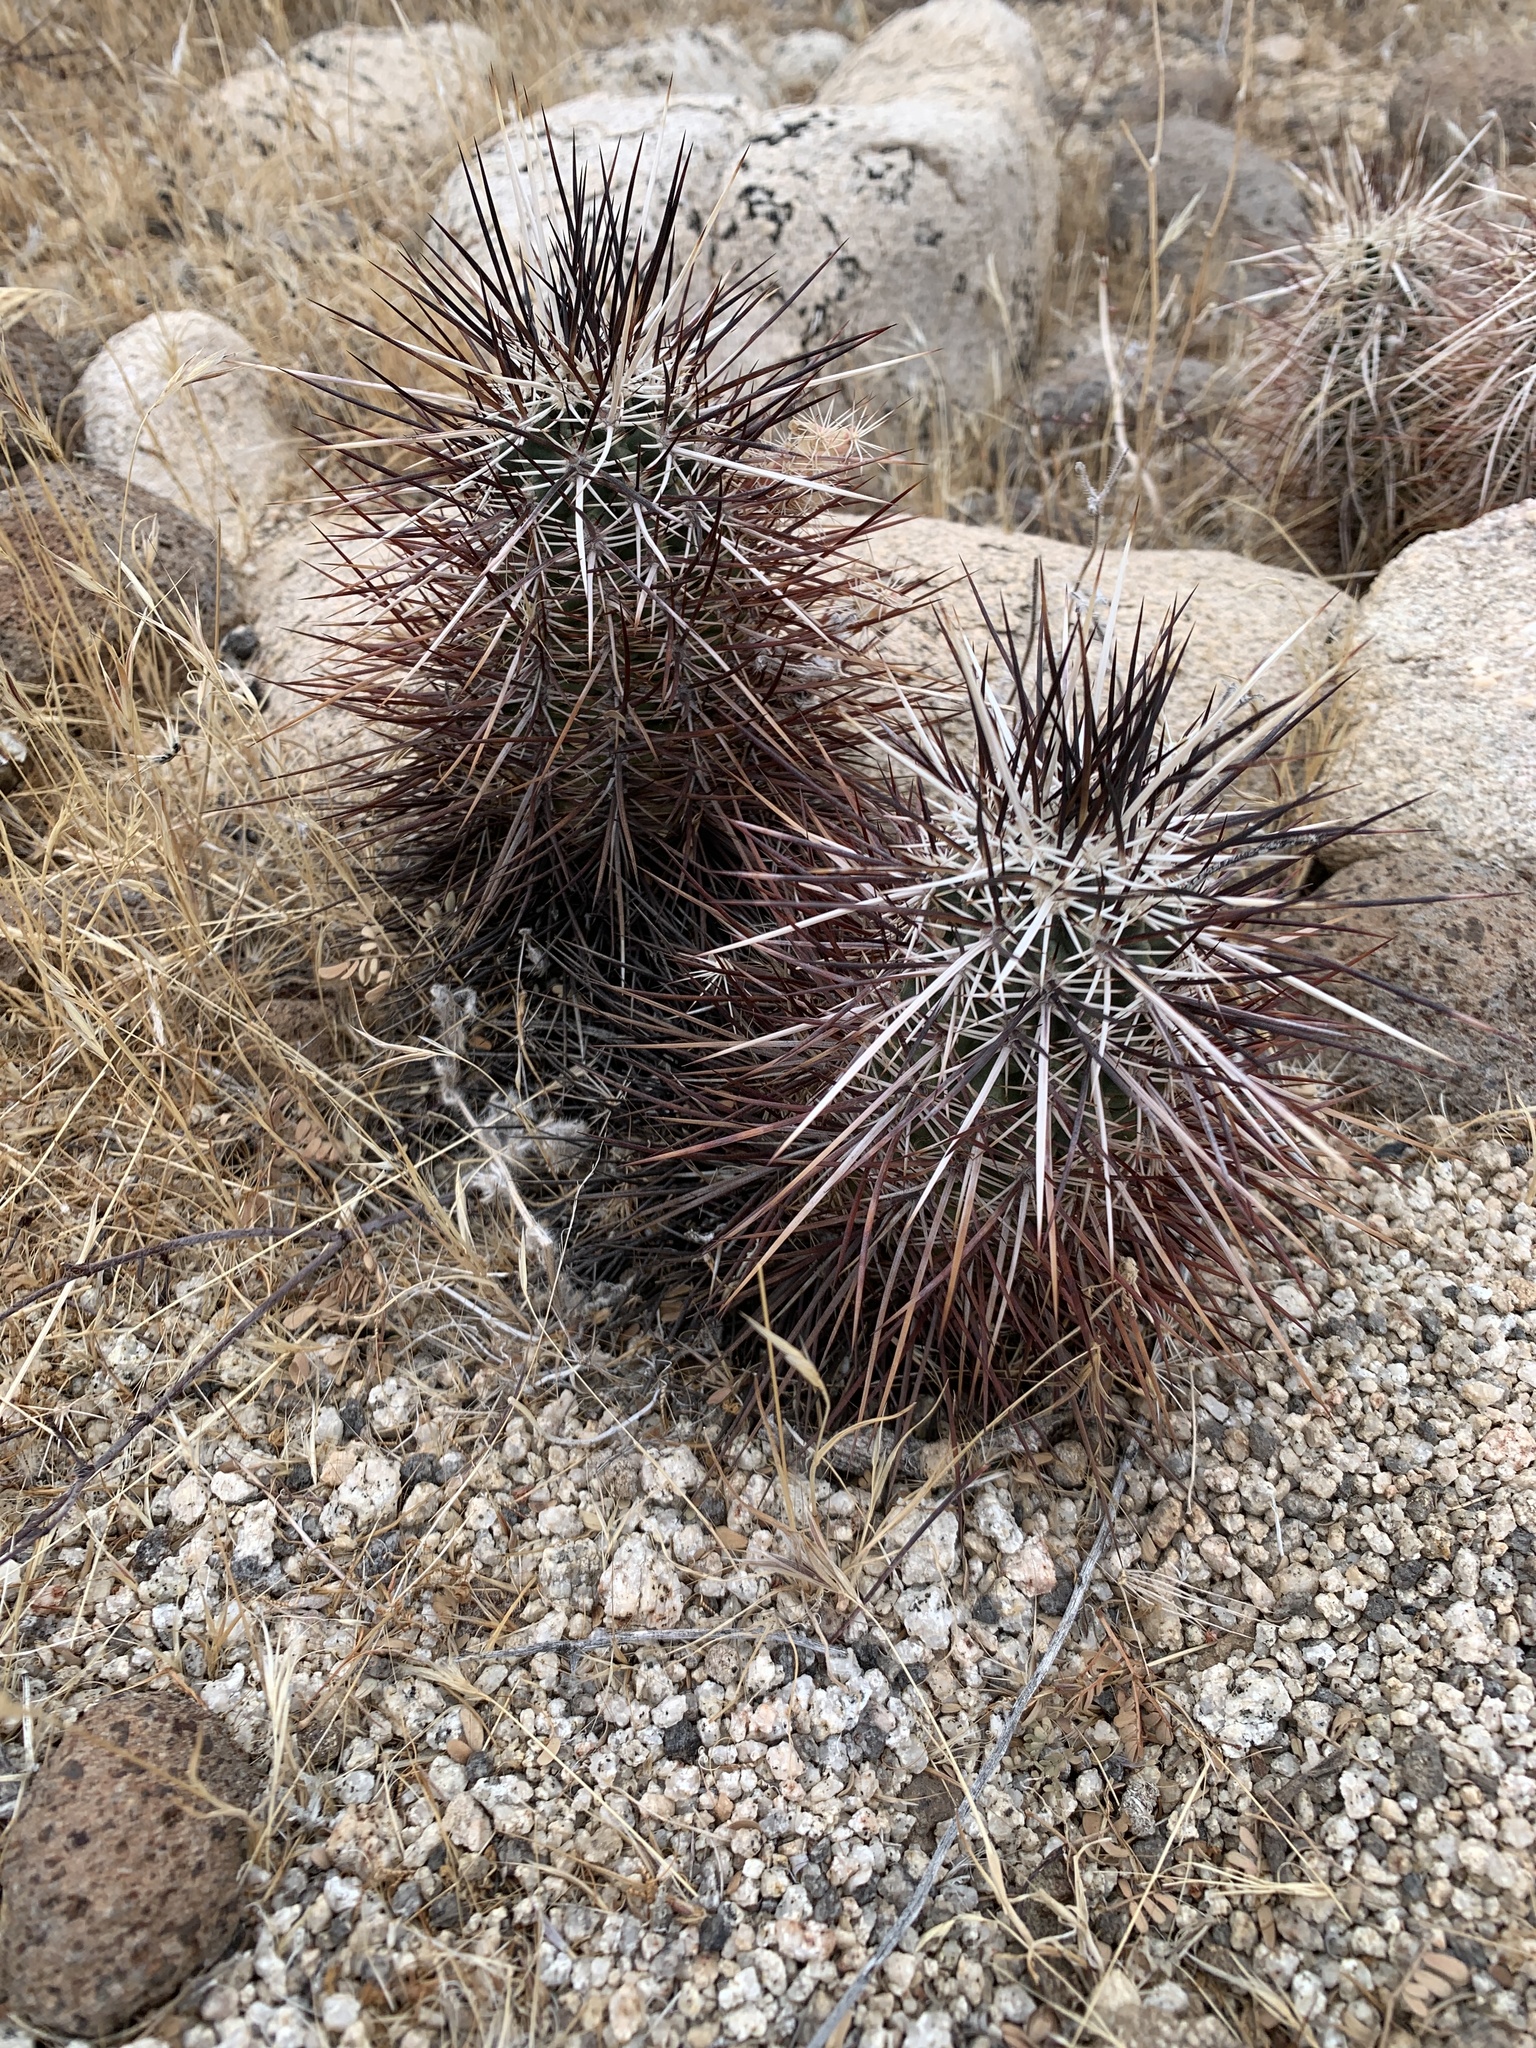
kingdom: Plantae
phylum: Tracheophyta
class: Magnoliopsida
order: Caryophyllales
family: Cactaceae
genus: Echinocereus
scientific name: Echinocereus engelmannii
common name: Engelmann's hedgehog cactus
